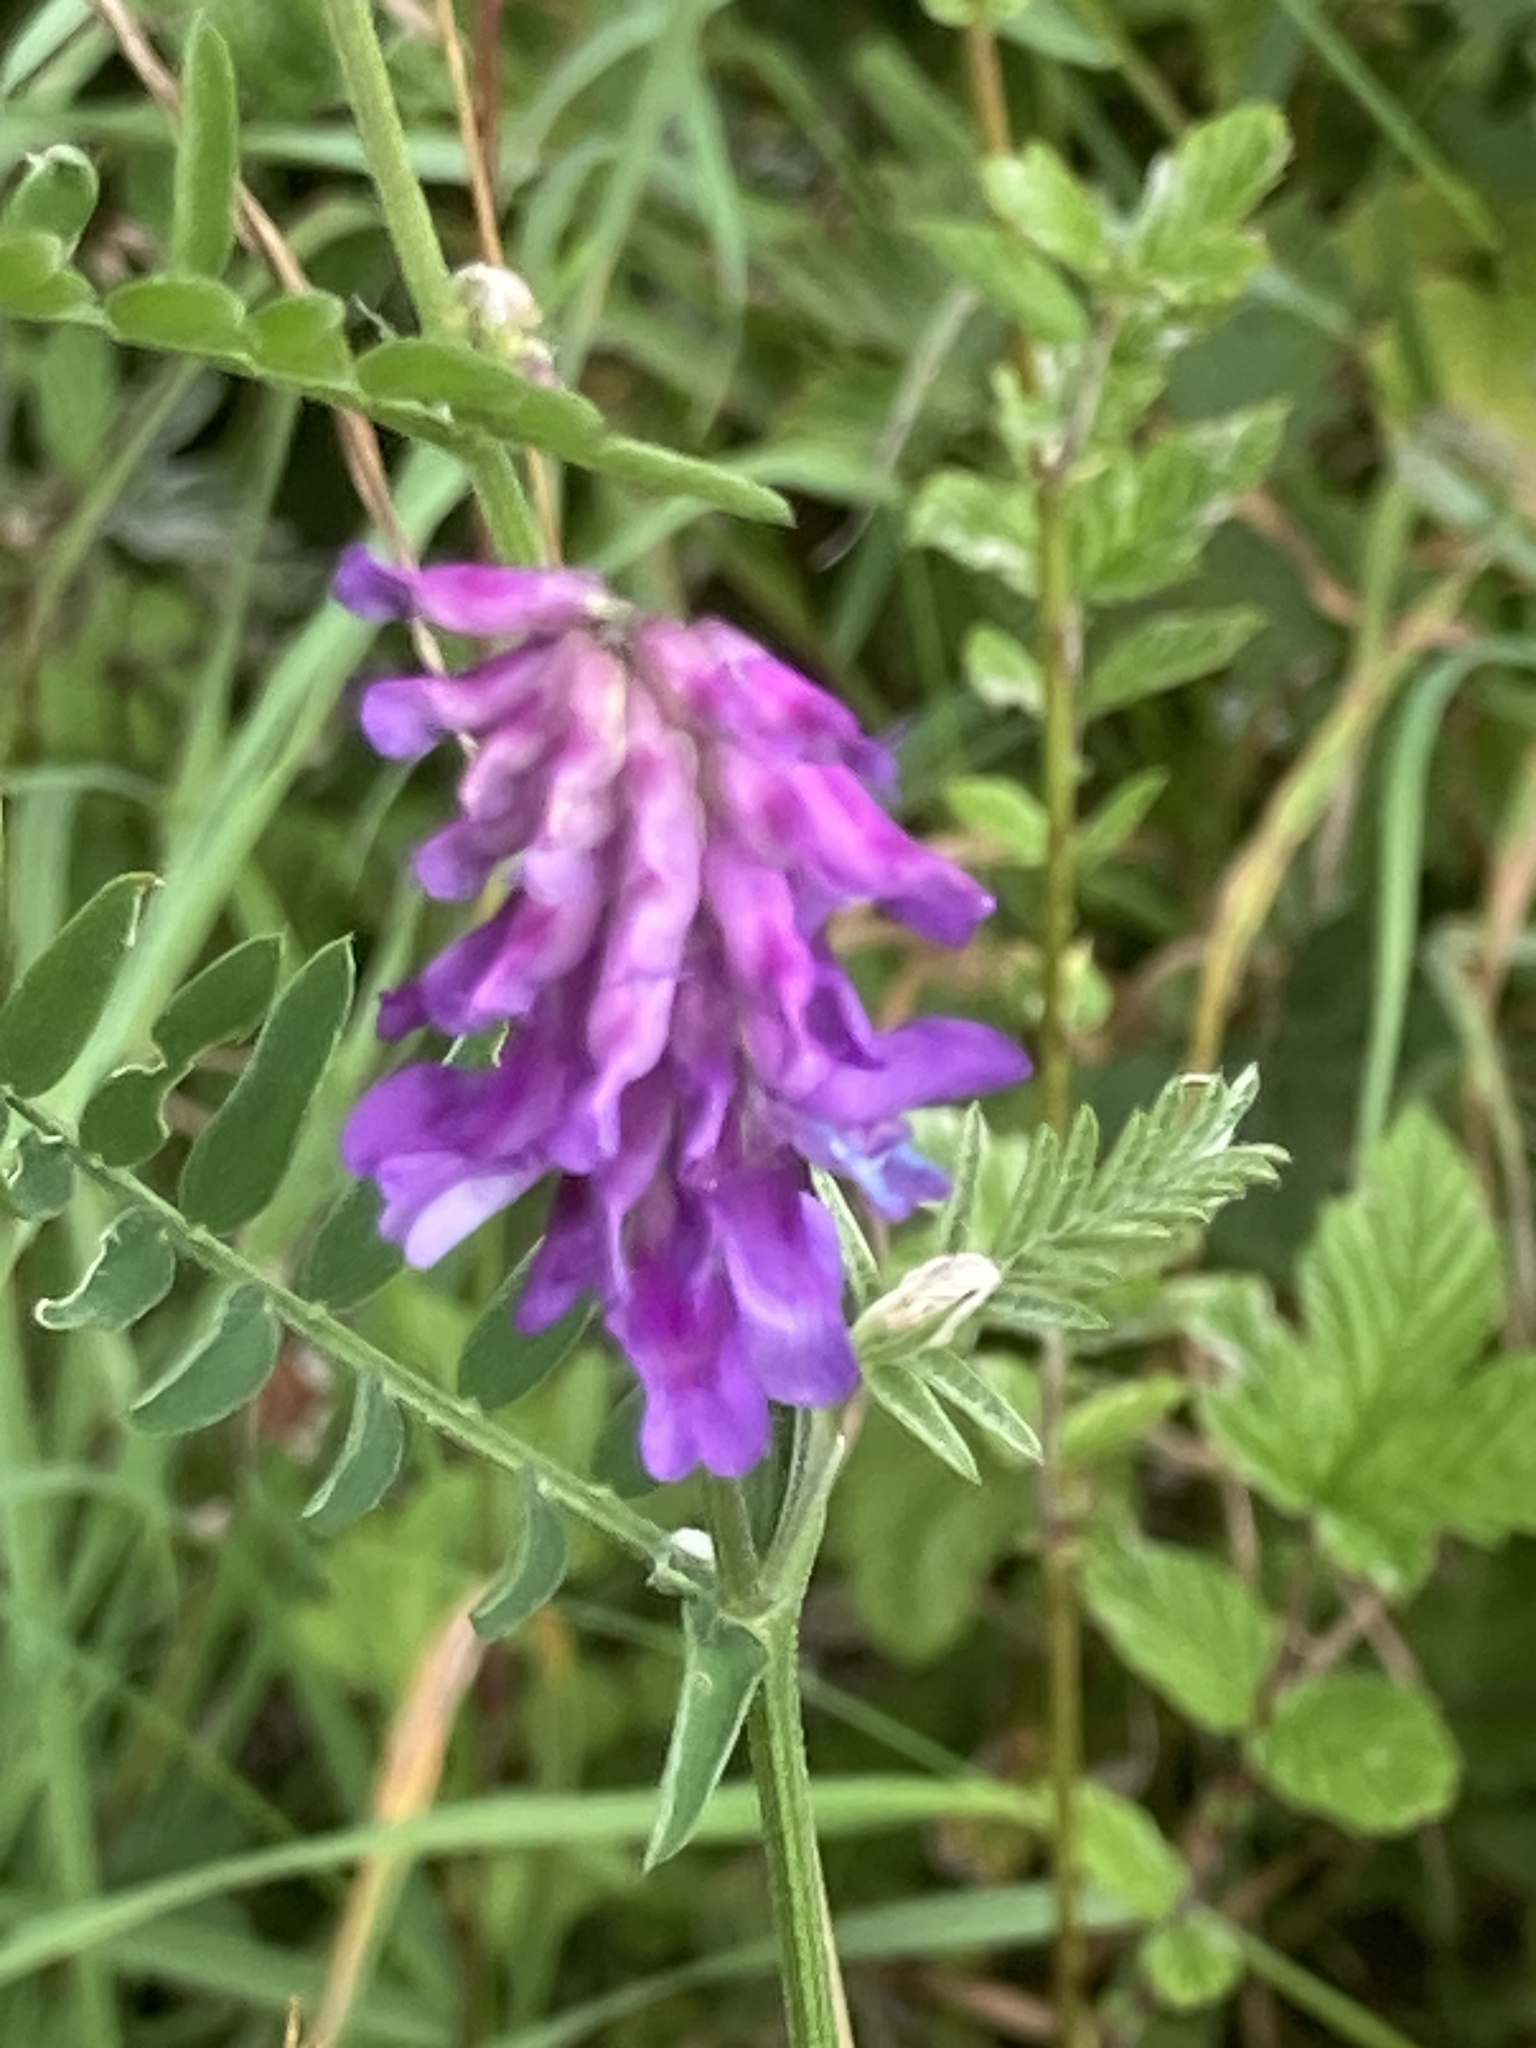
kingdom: Plantae
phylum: Tracheophyta
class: Magnoliopsida
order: Fabales
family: Fabaceae
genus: Vicia
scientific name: Vicia cracca
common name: Bird vetch
